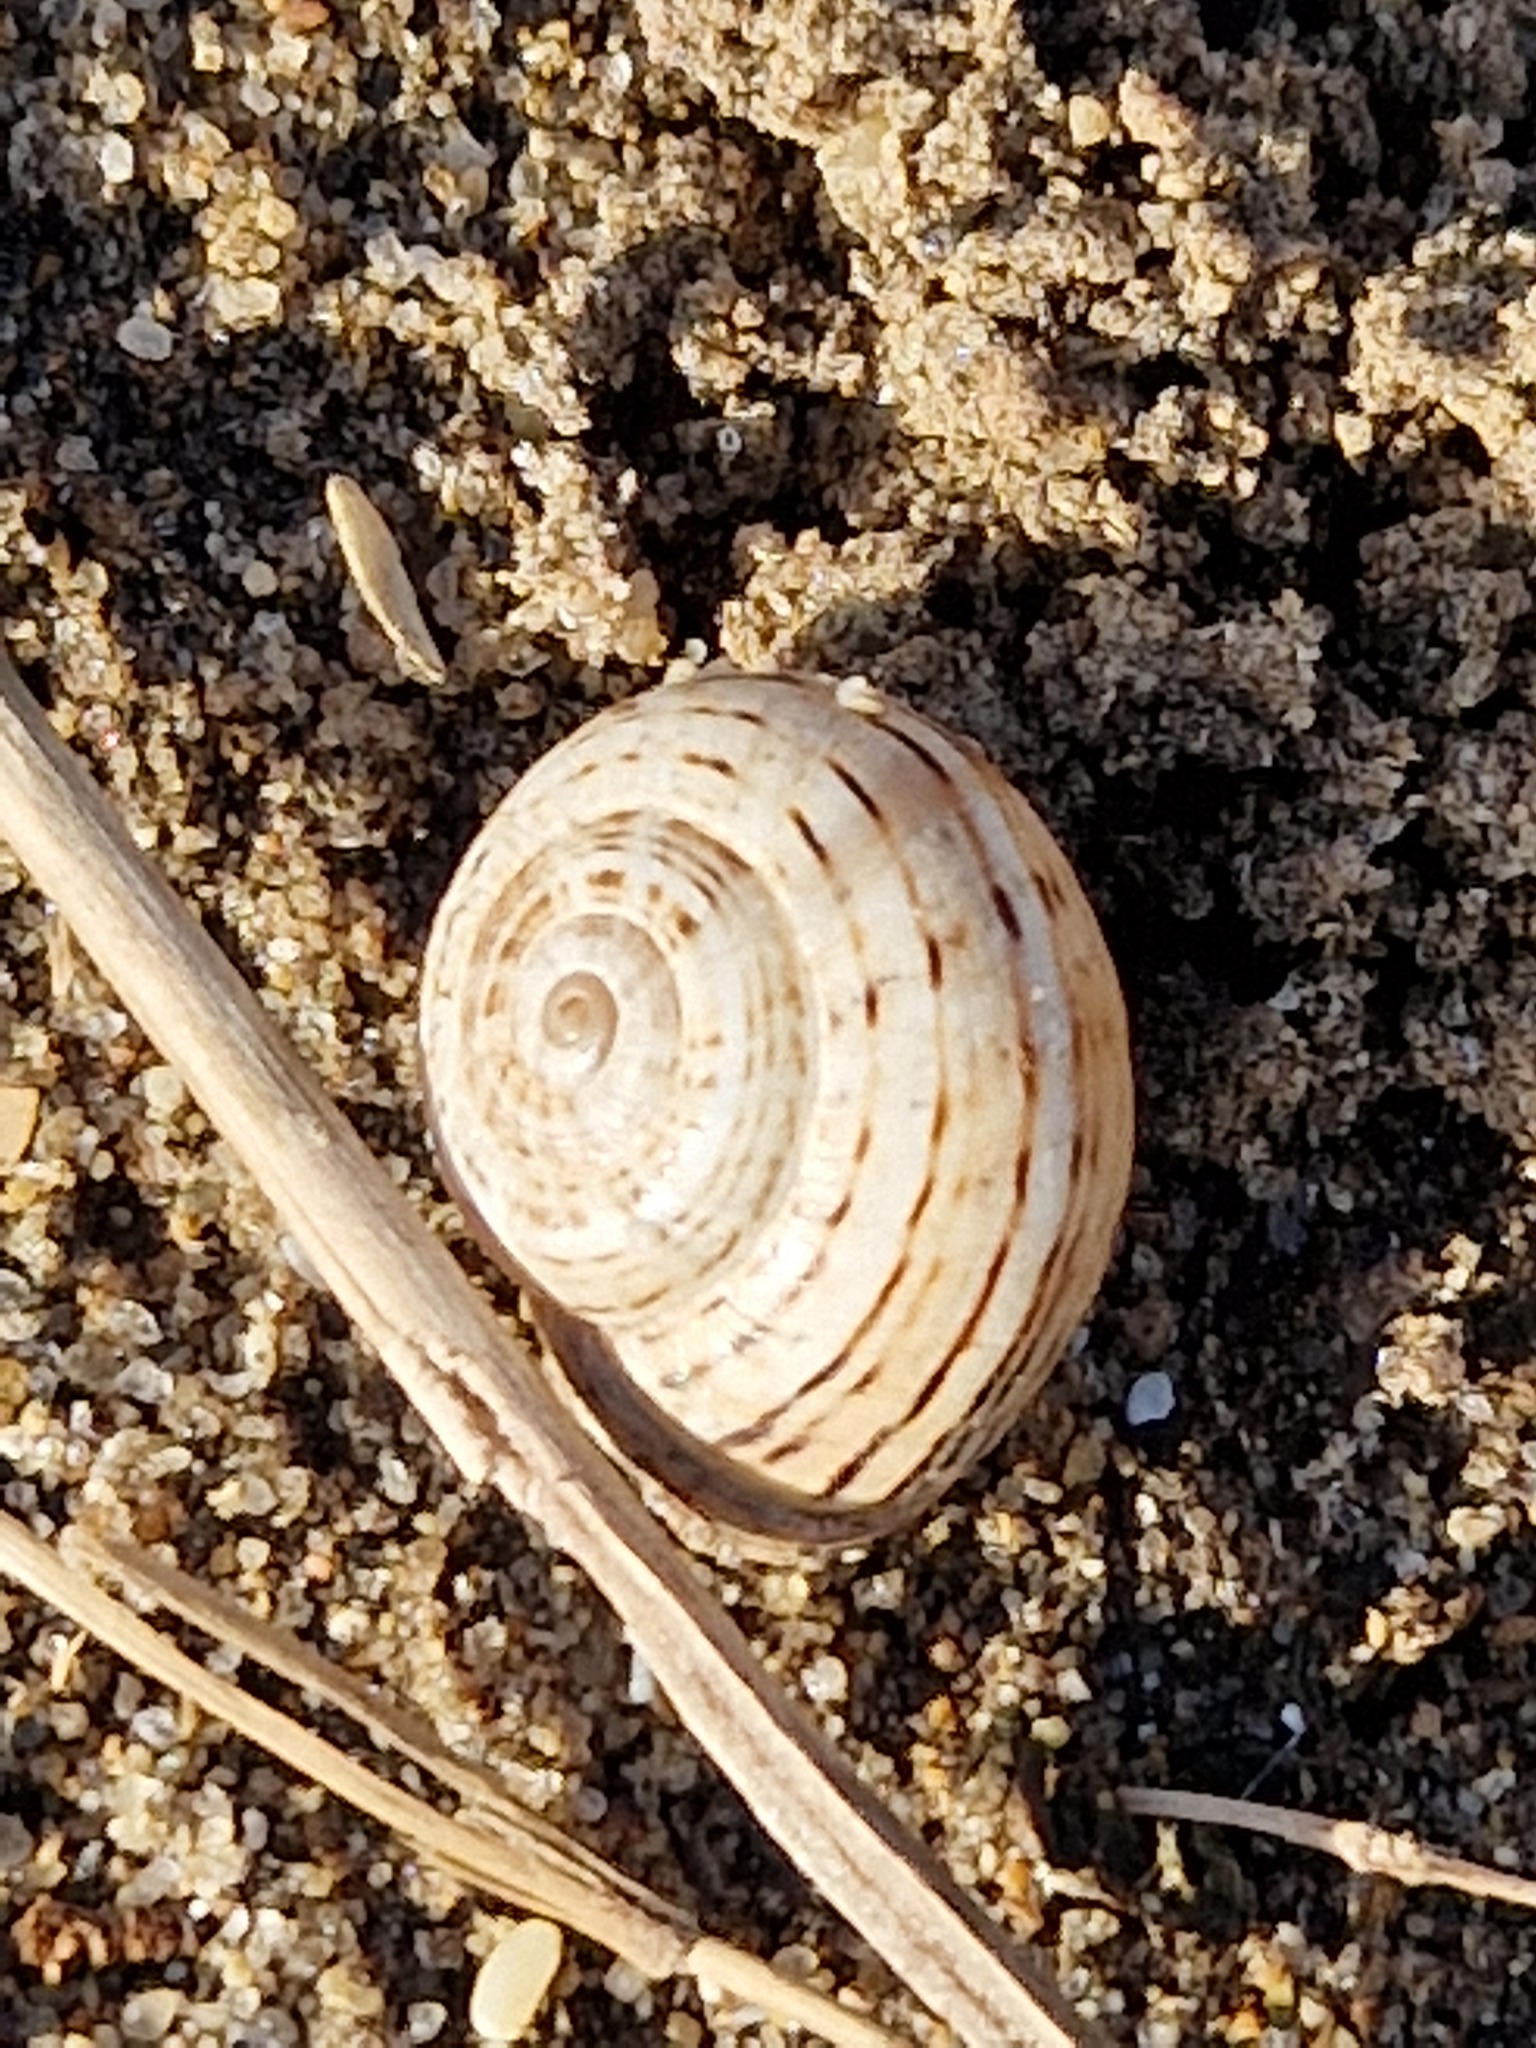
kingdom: Animalia
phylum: Mollusca
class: Gastropoda
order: Stylommatophora
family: Helicidae
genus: Theba
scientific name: Theba pisana
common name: White snail
